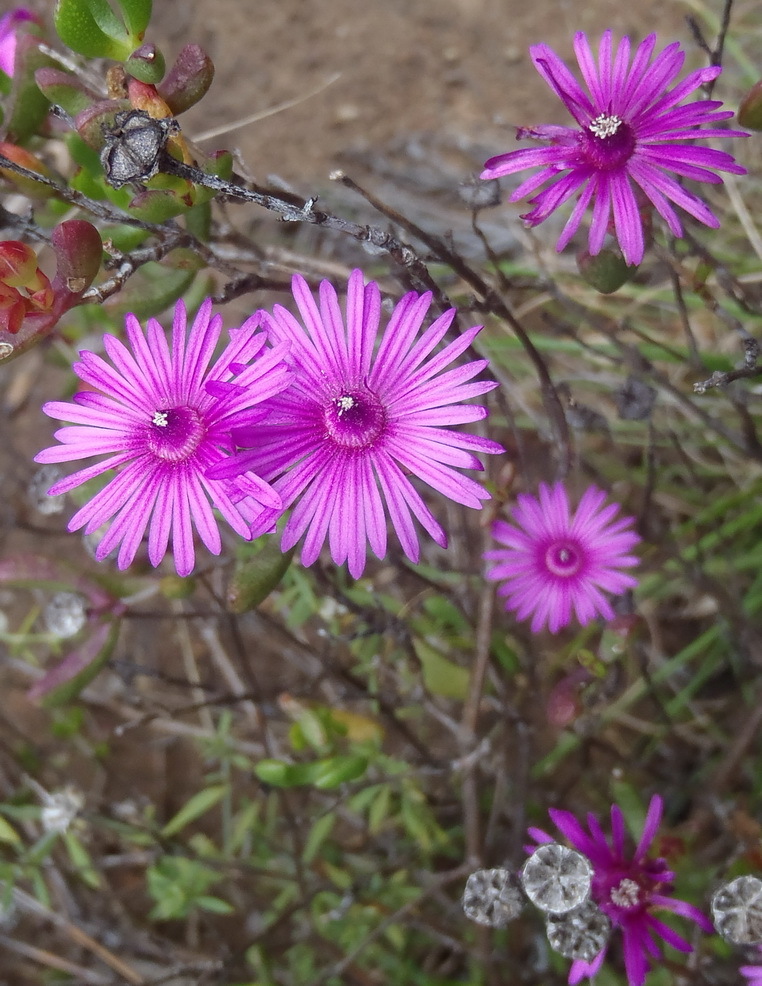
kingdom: Plantae
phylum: Tracheophyta
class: Magnoliopsida
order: Caryophyllales
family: Aizoaceae
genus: Ruschia
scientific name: Ruschia fourcadei
